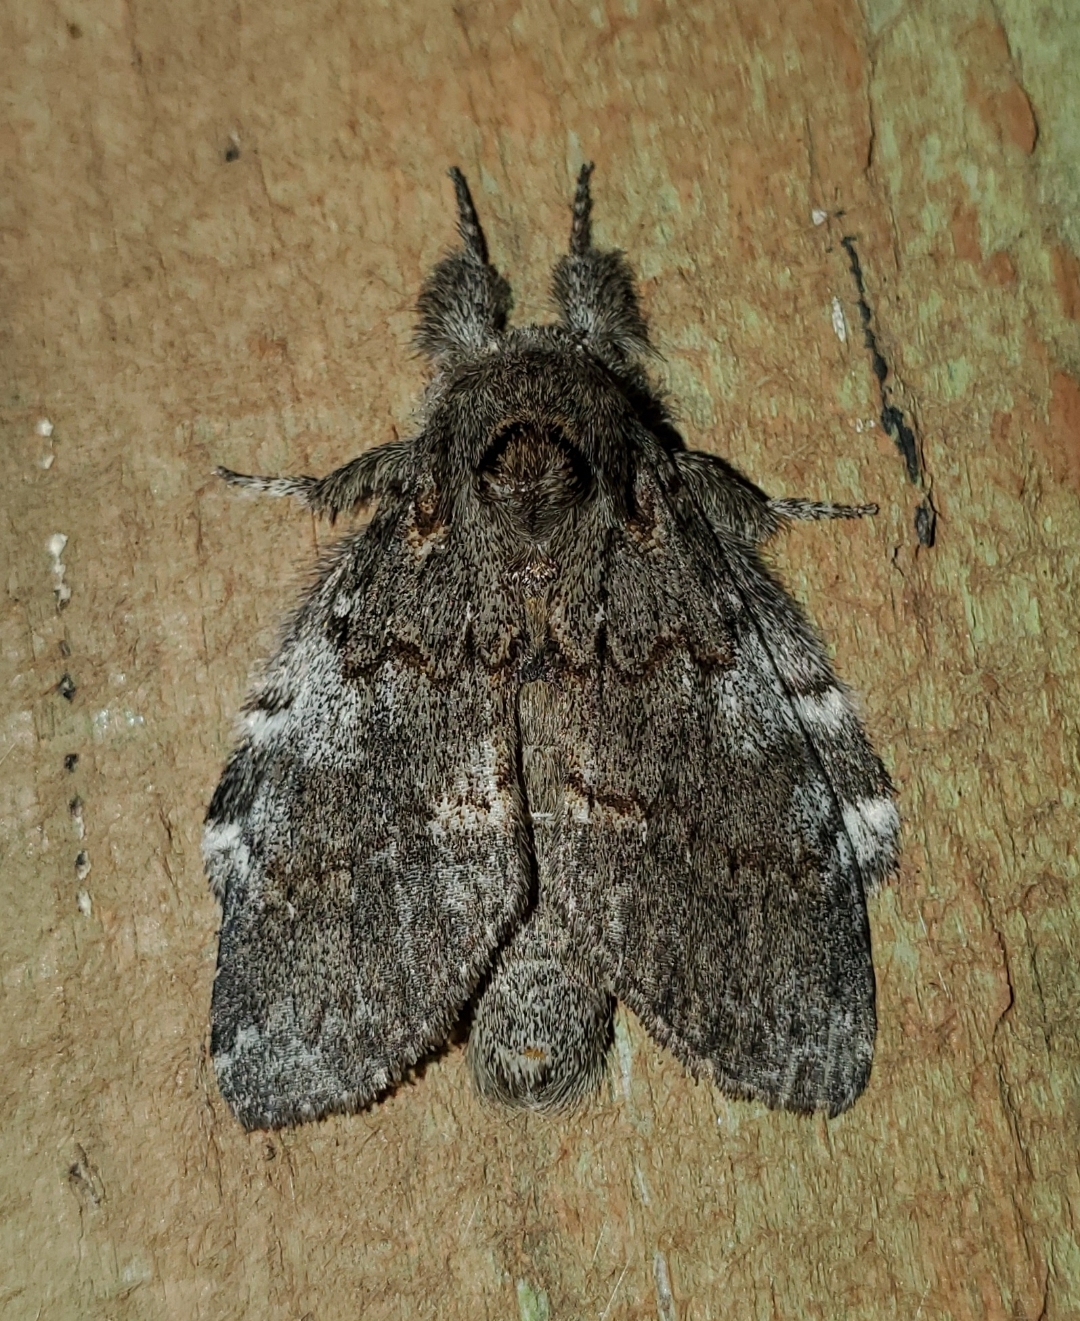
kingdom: Animalia
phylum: Arthropoda
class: Insecta
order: Lepidoptera
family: Notodontidae
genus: Peridea
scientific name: Peridea angulosa
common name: Angulose prominent
